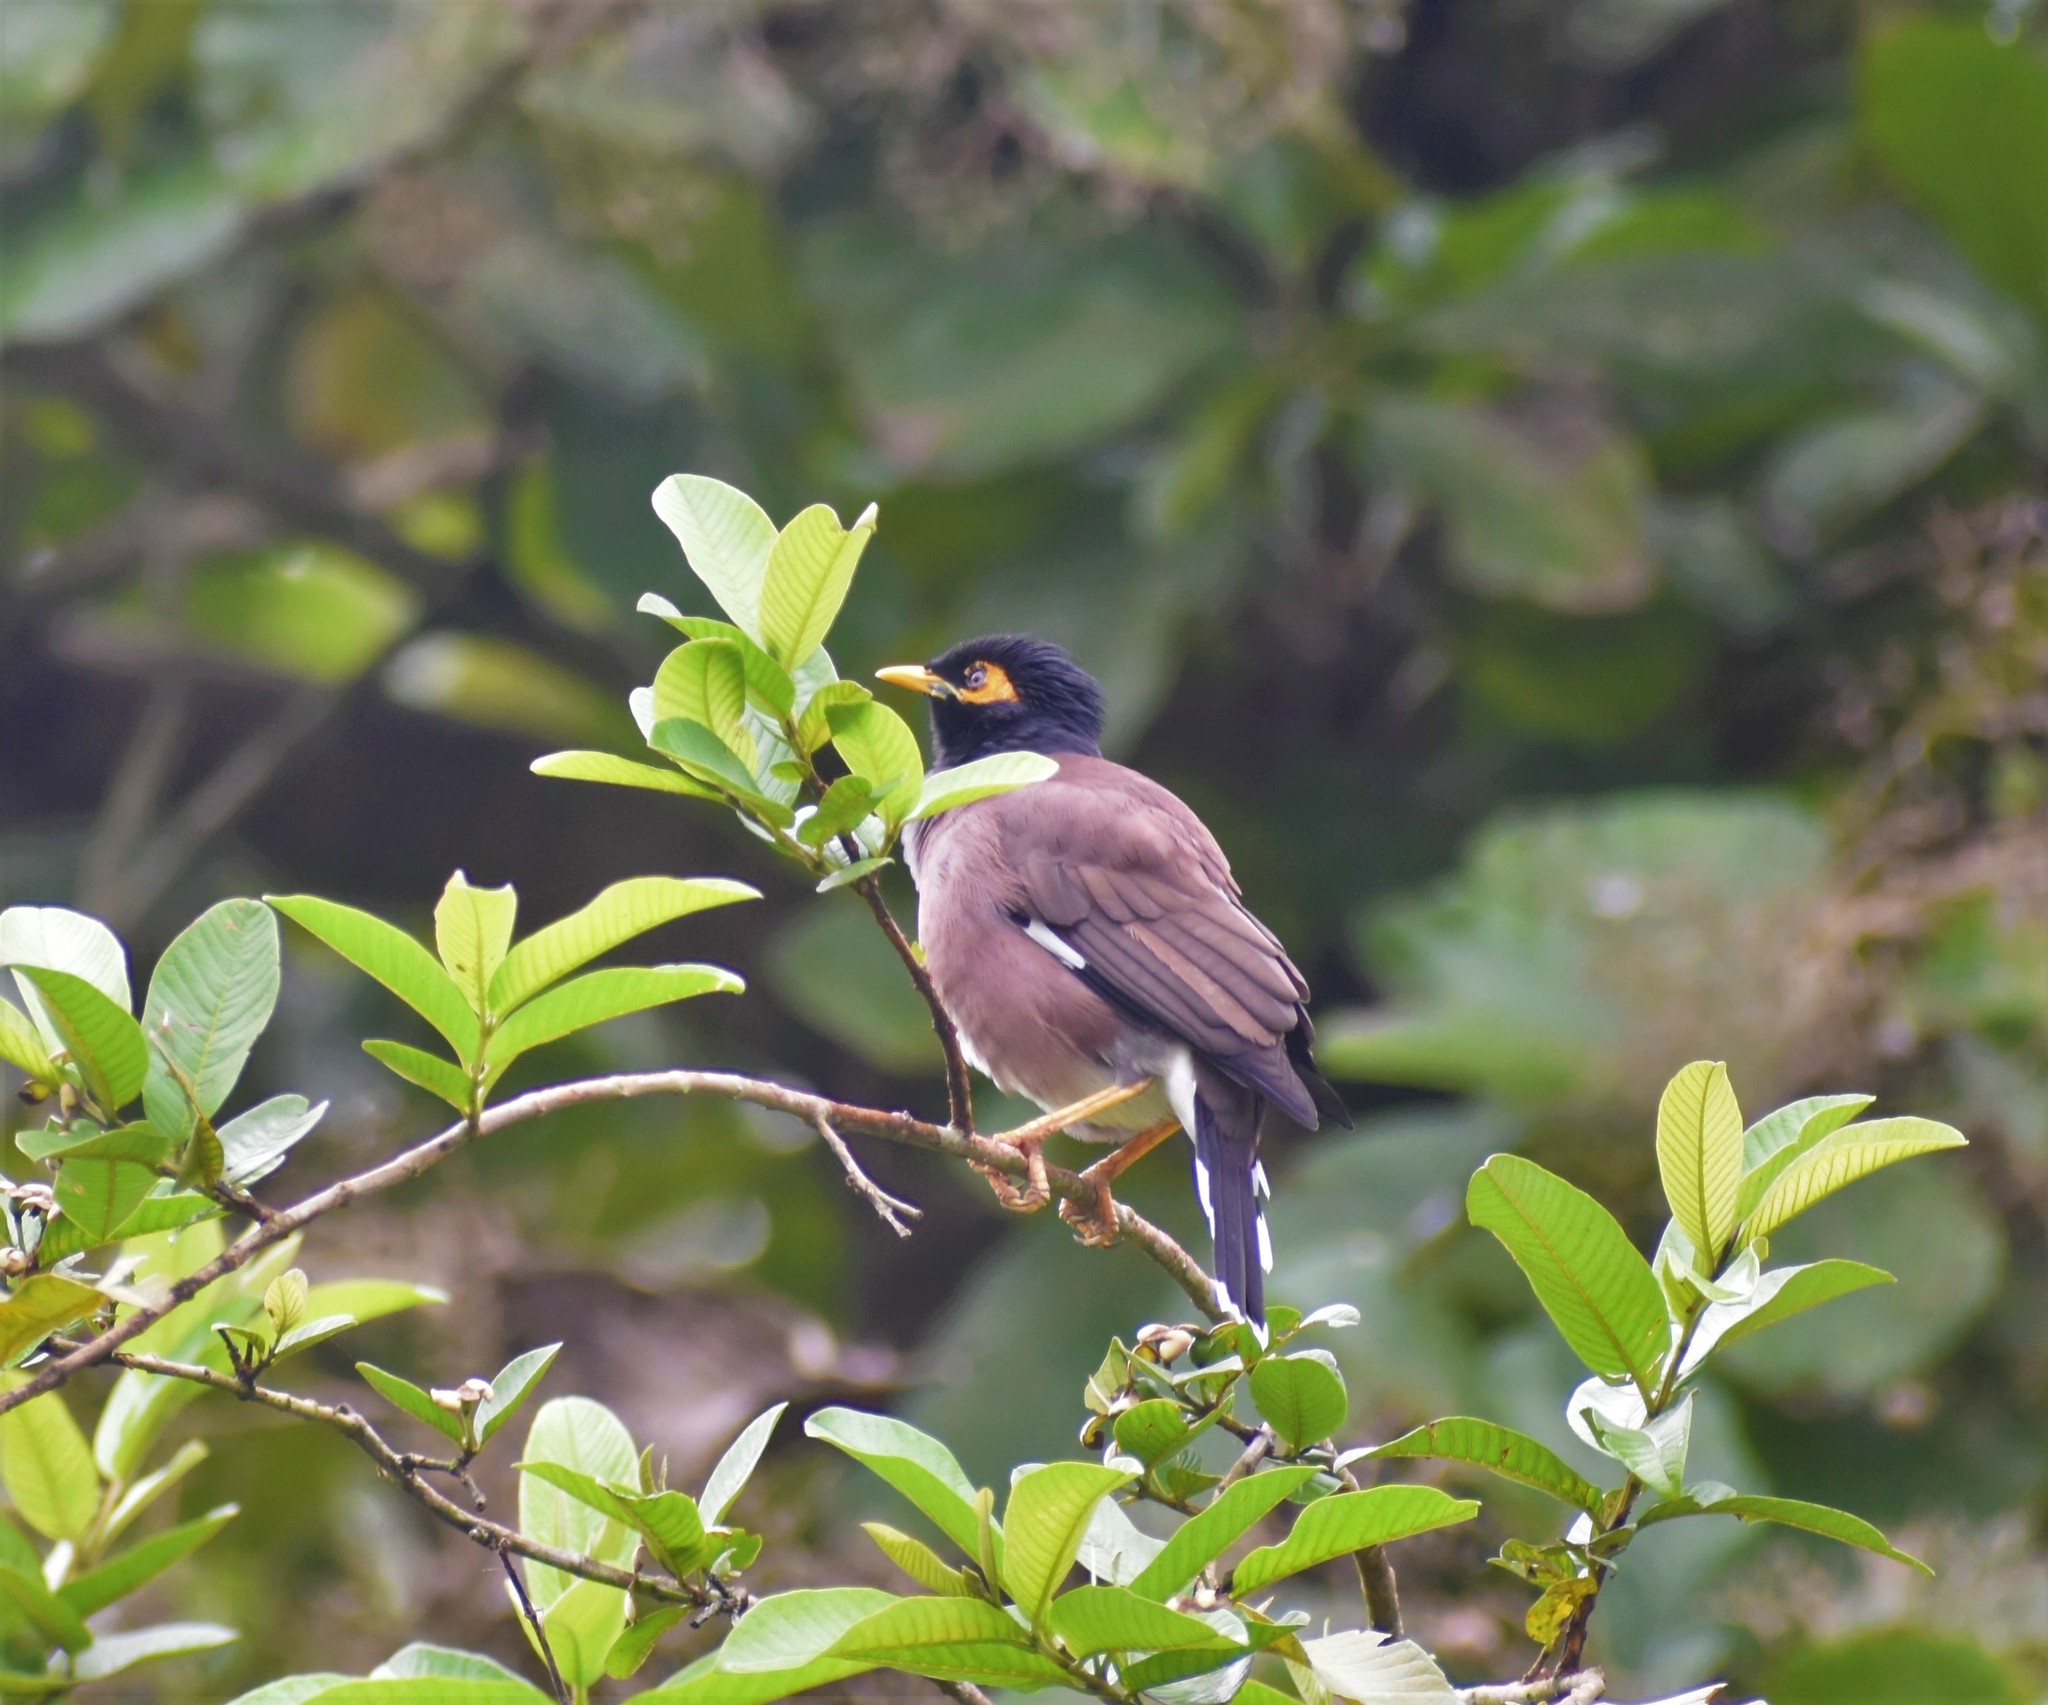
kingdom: Animalia
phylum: Chordata
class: Aves
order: Passeriformes
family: Sturnidae
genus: Acridotheres
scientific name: Acridotheres tristis
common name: Common myna
